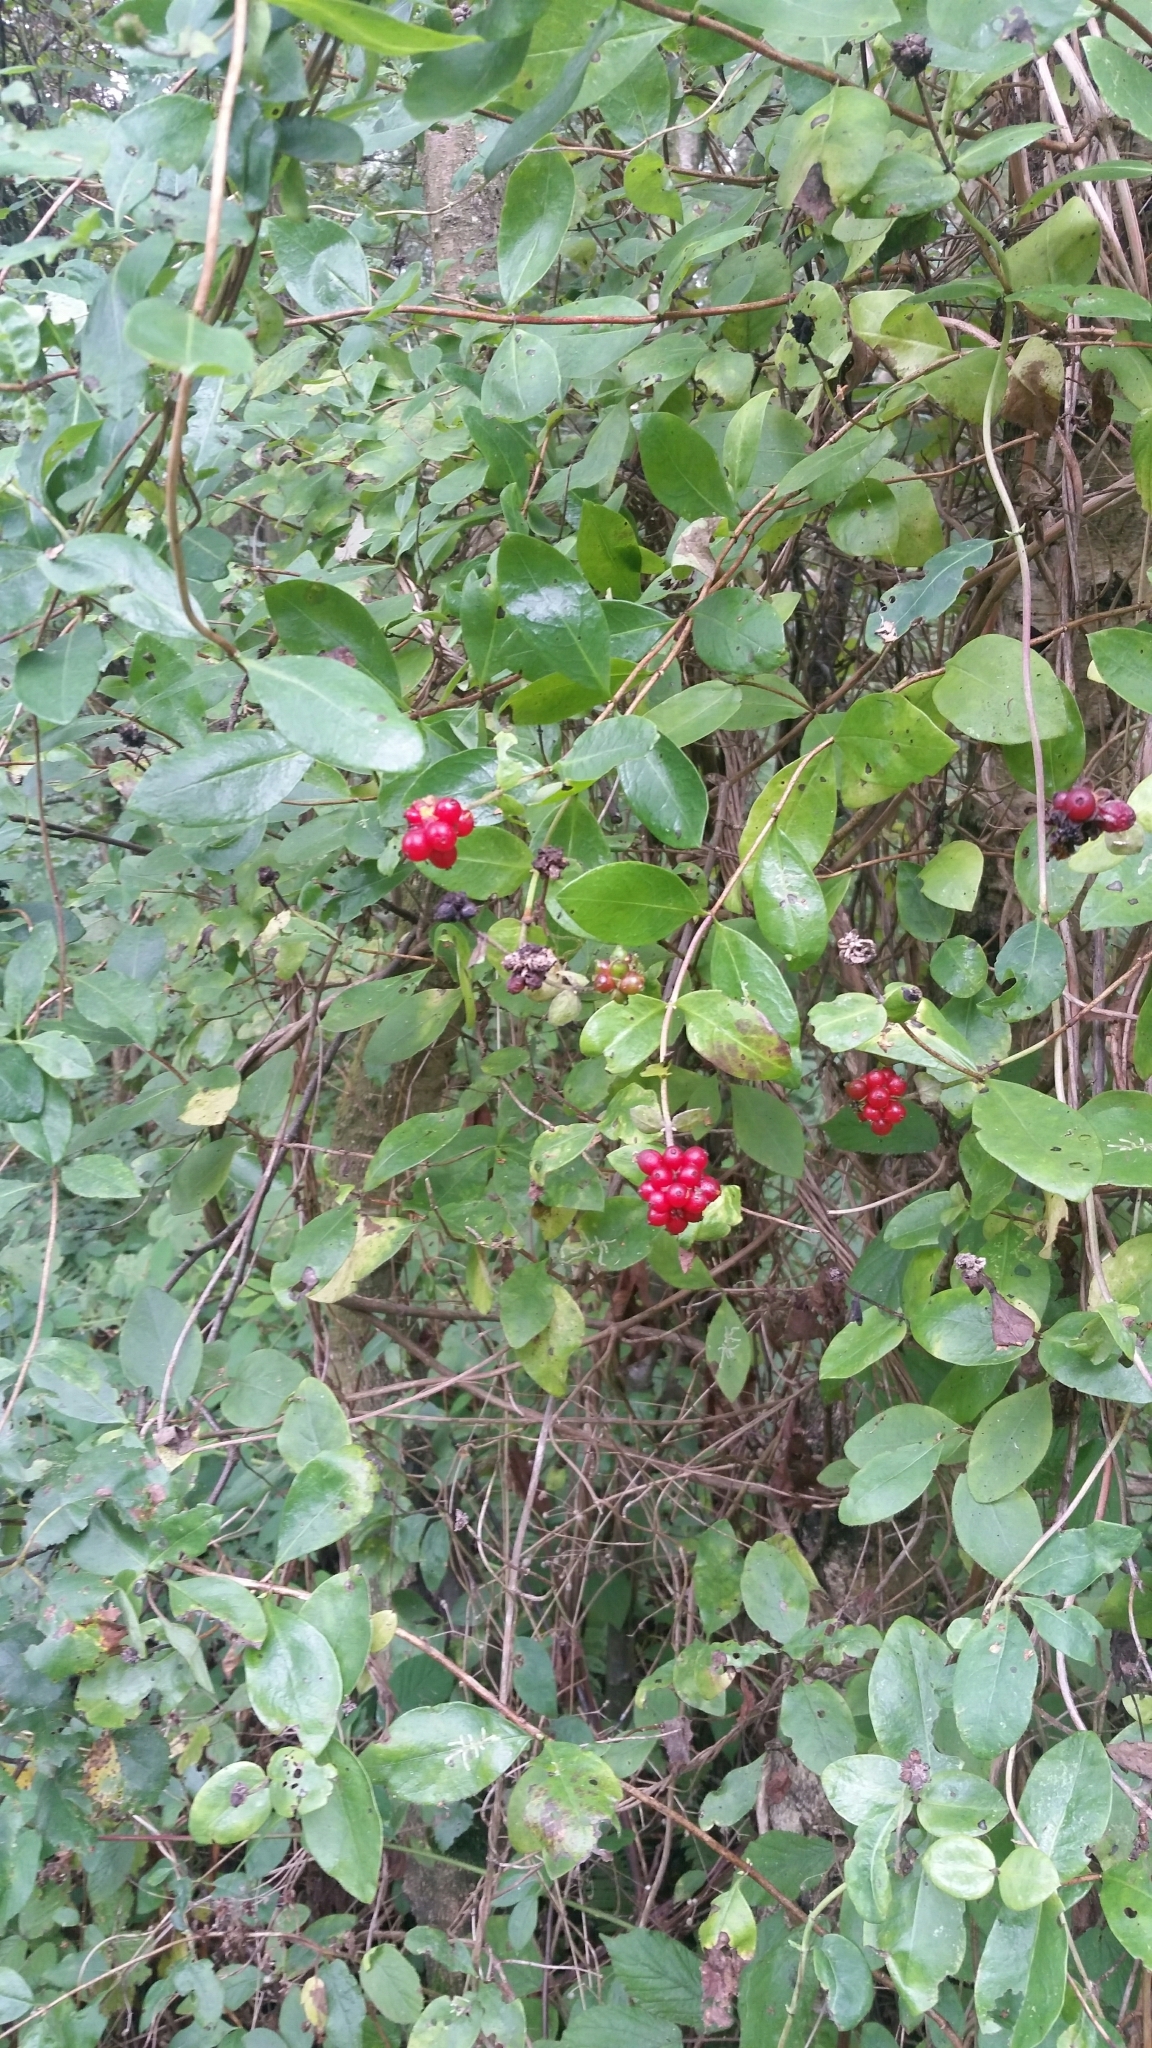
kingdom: Plantae
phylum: Tracheophyta
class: Magnoliopsida
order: Dipsacales
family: Caprifoliaceae
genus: Lonicera
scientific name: Lonicera periclymenum
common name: European honeysuckle
